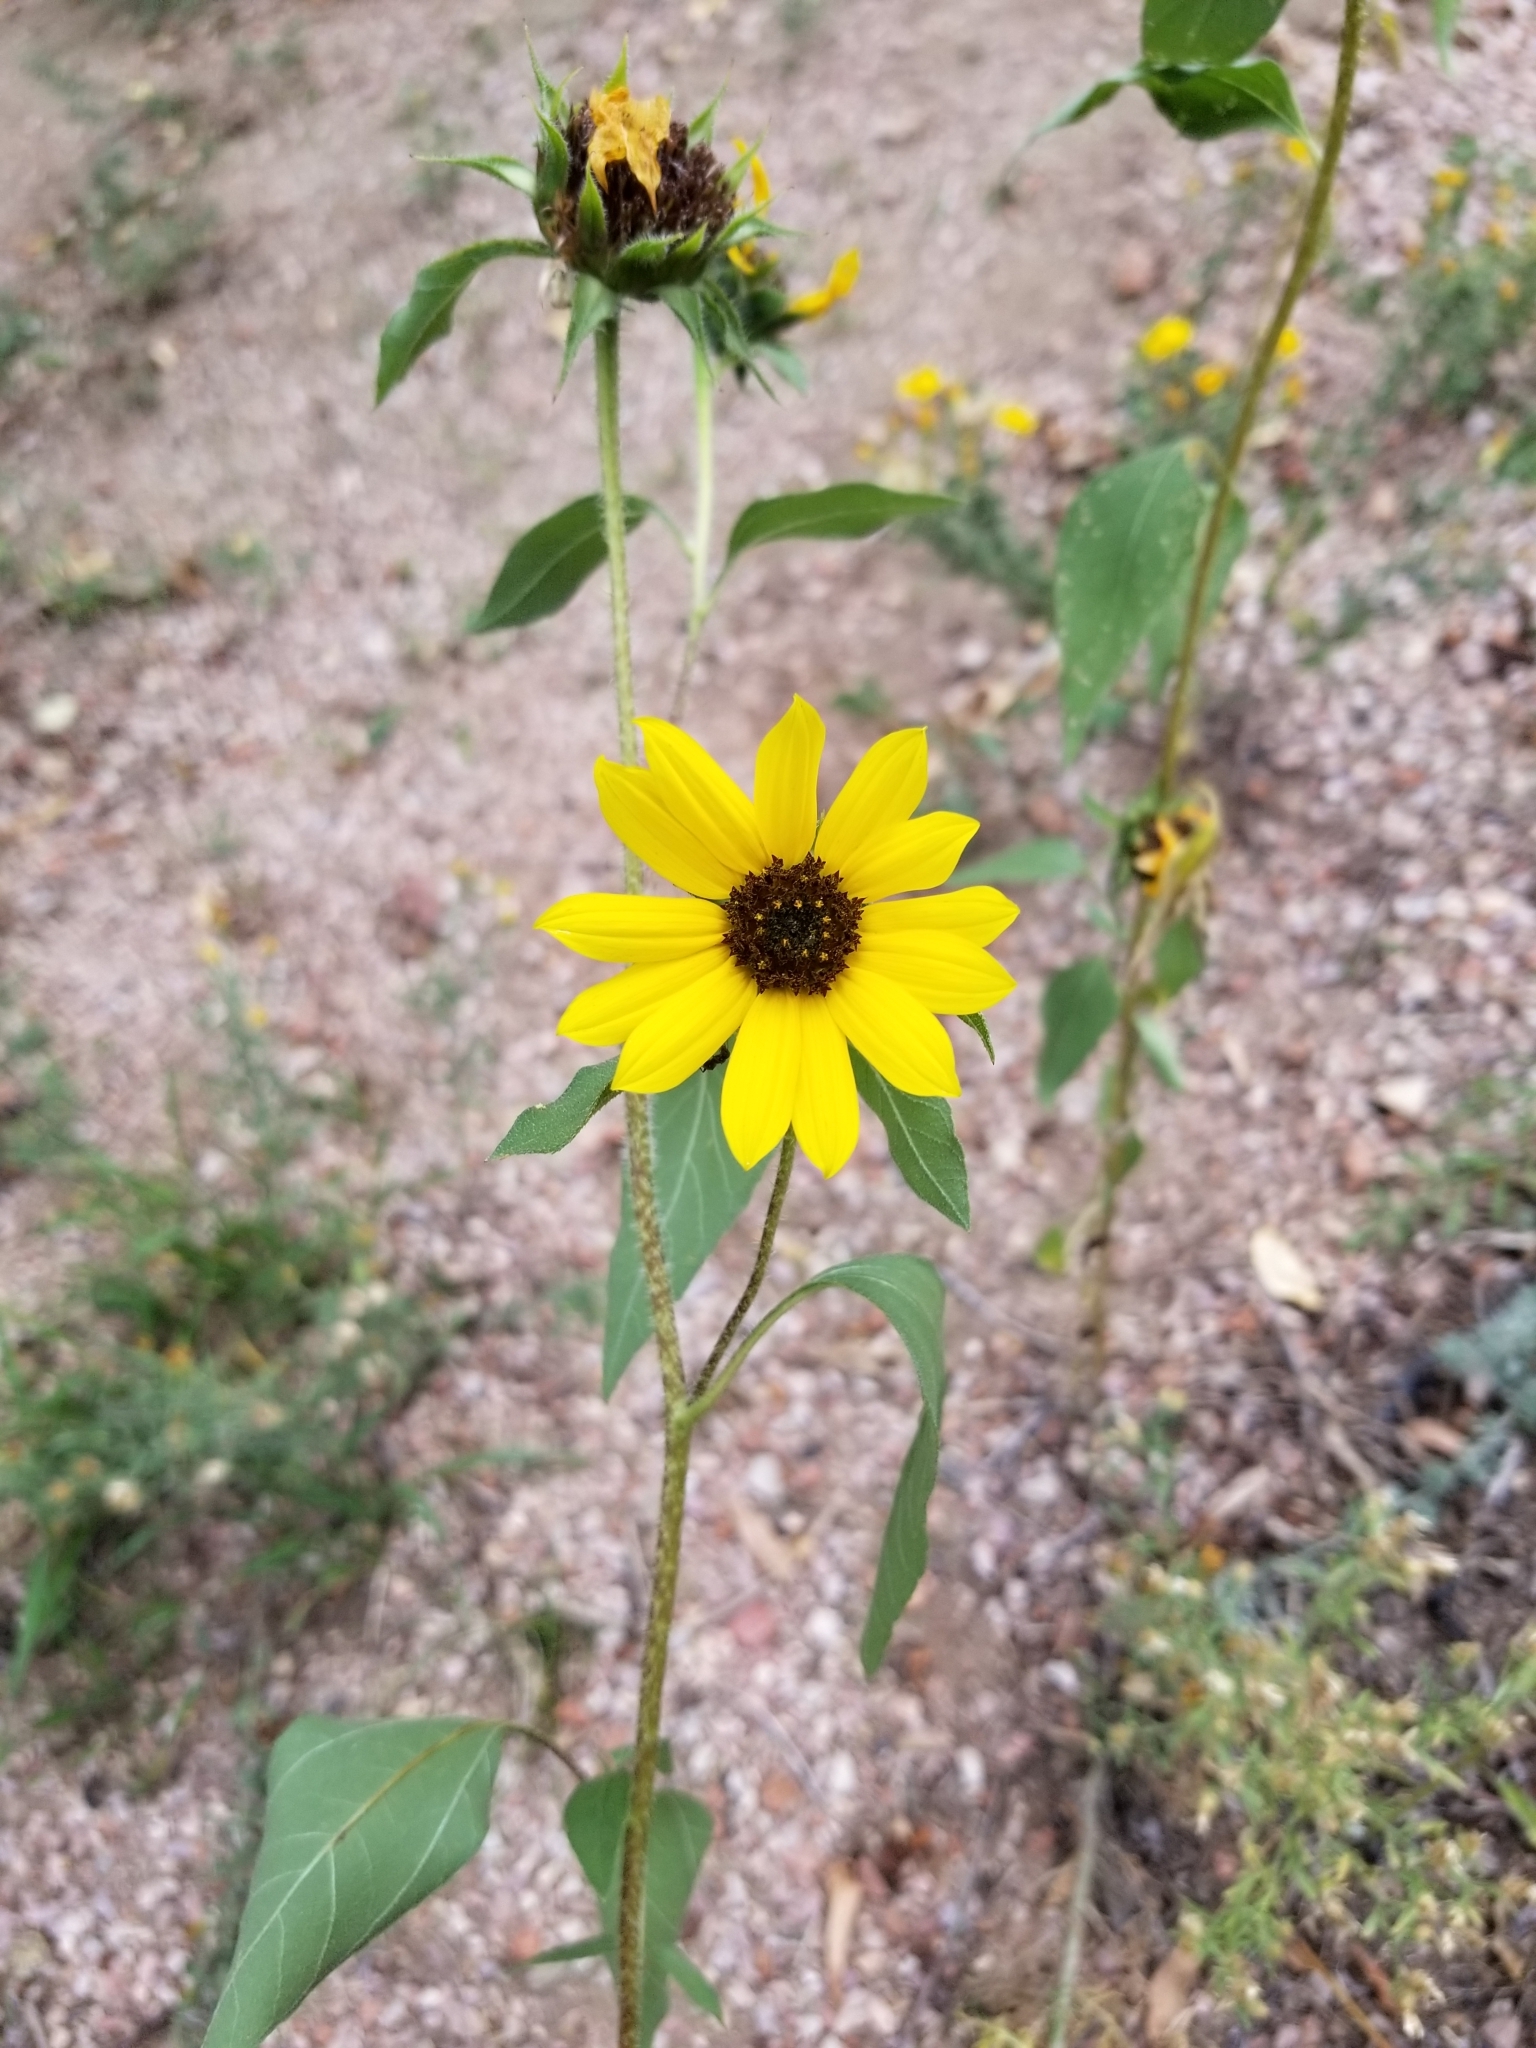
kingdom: Plantae
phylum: Tracheophyta
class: Magnoliopsida
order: Asterales
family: Asteraceae
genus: Helianthus
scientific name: Helianthus petiolaris
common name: Lesser sunflower
